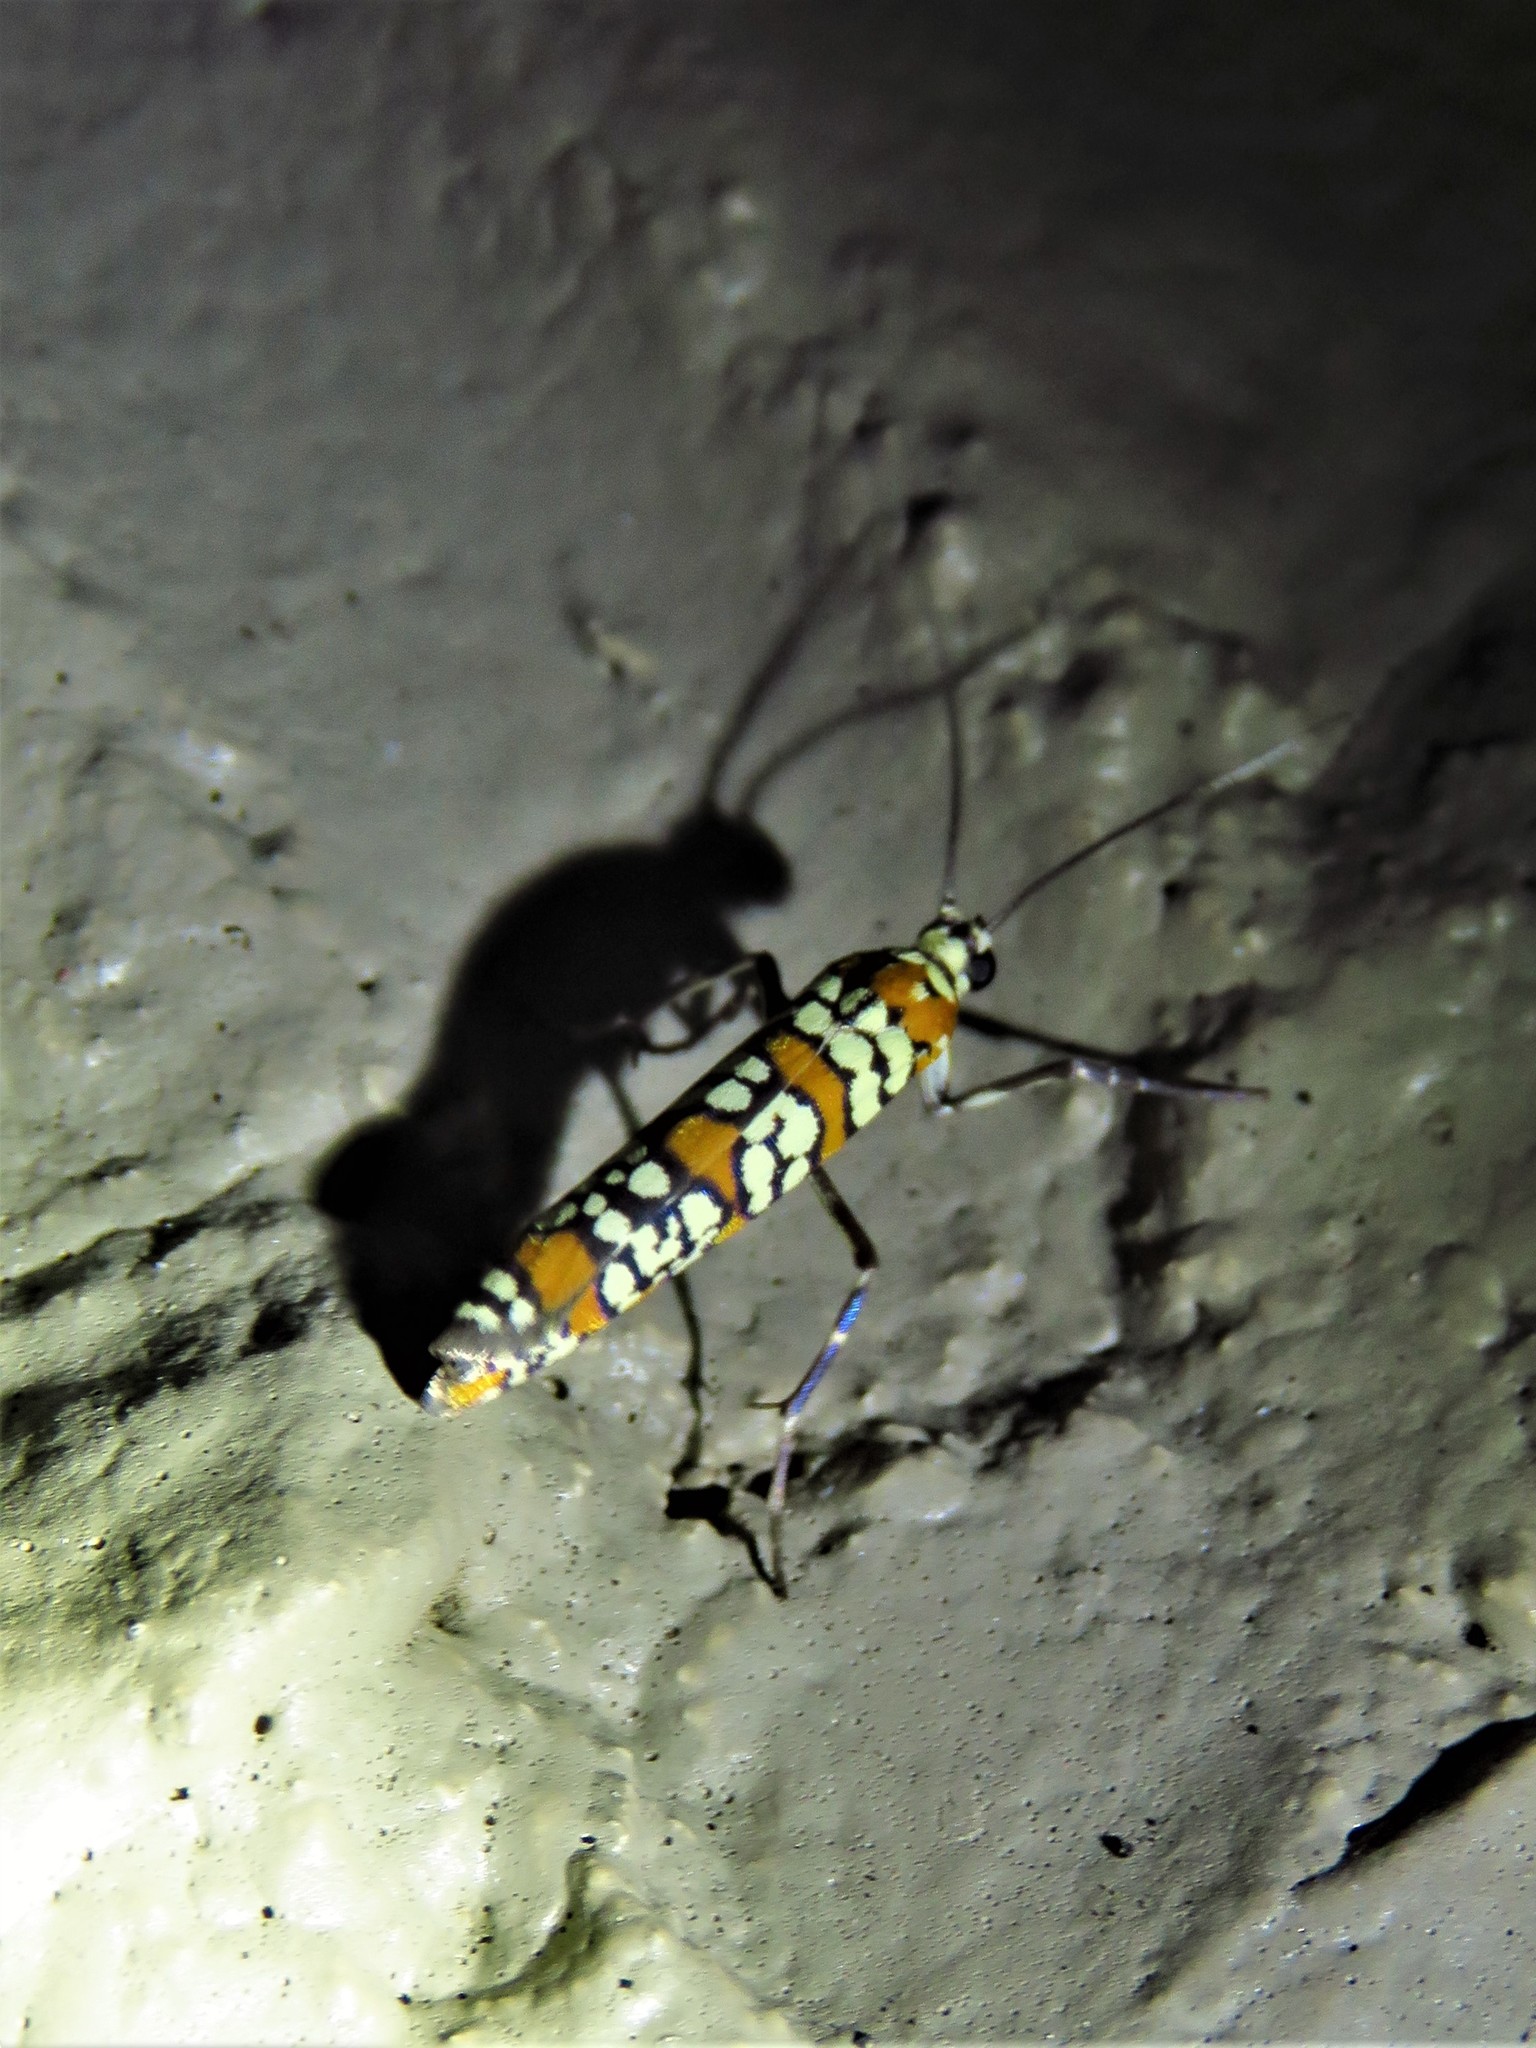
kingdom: Animalia
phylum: Arthropoda
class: Insecta
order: Lepidoptera
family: Attevidae
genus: Atteva
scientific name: Atteva punctella
